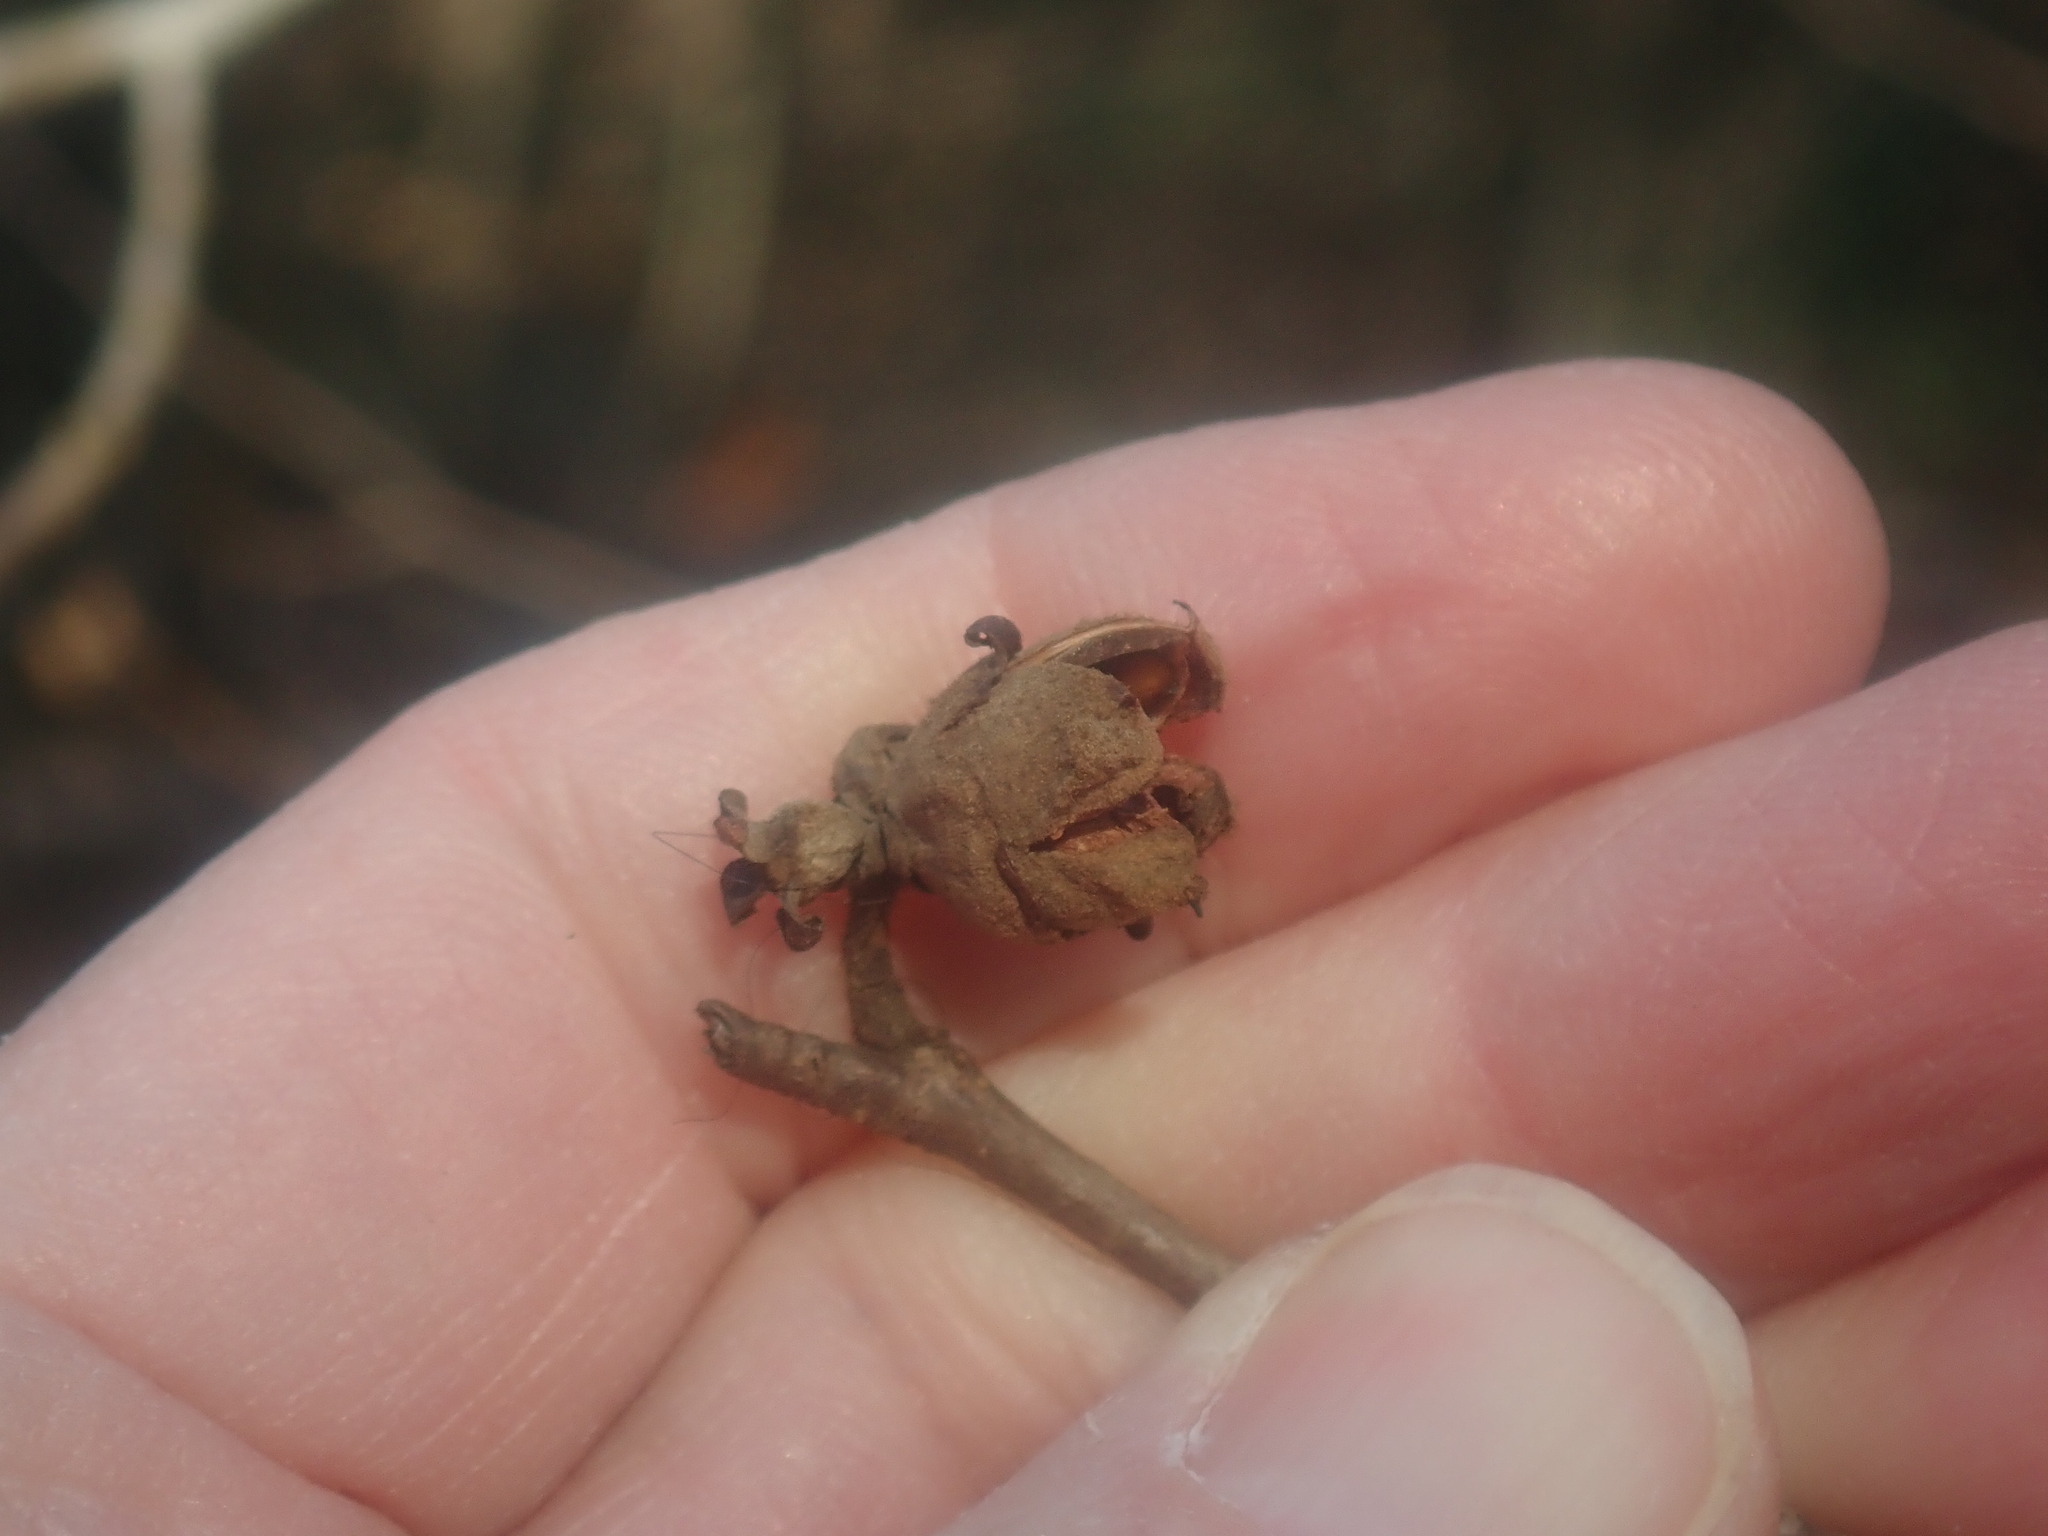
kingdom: Plantae
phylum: Tracheophyta
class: Magnoliopsida
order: Saxifragales
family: Hamamelidaceae
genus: Hamamelis
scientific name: Hamamelis virginiana
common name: Witch-hazel
